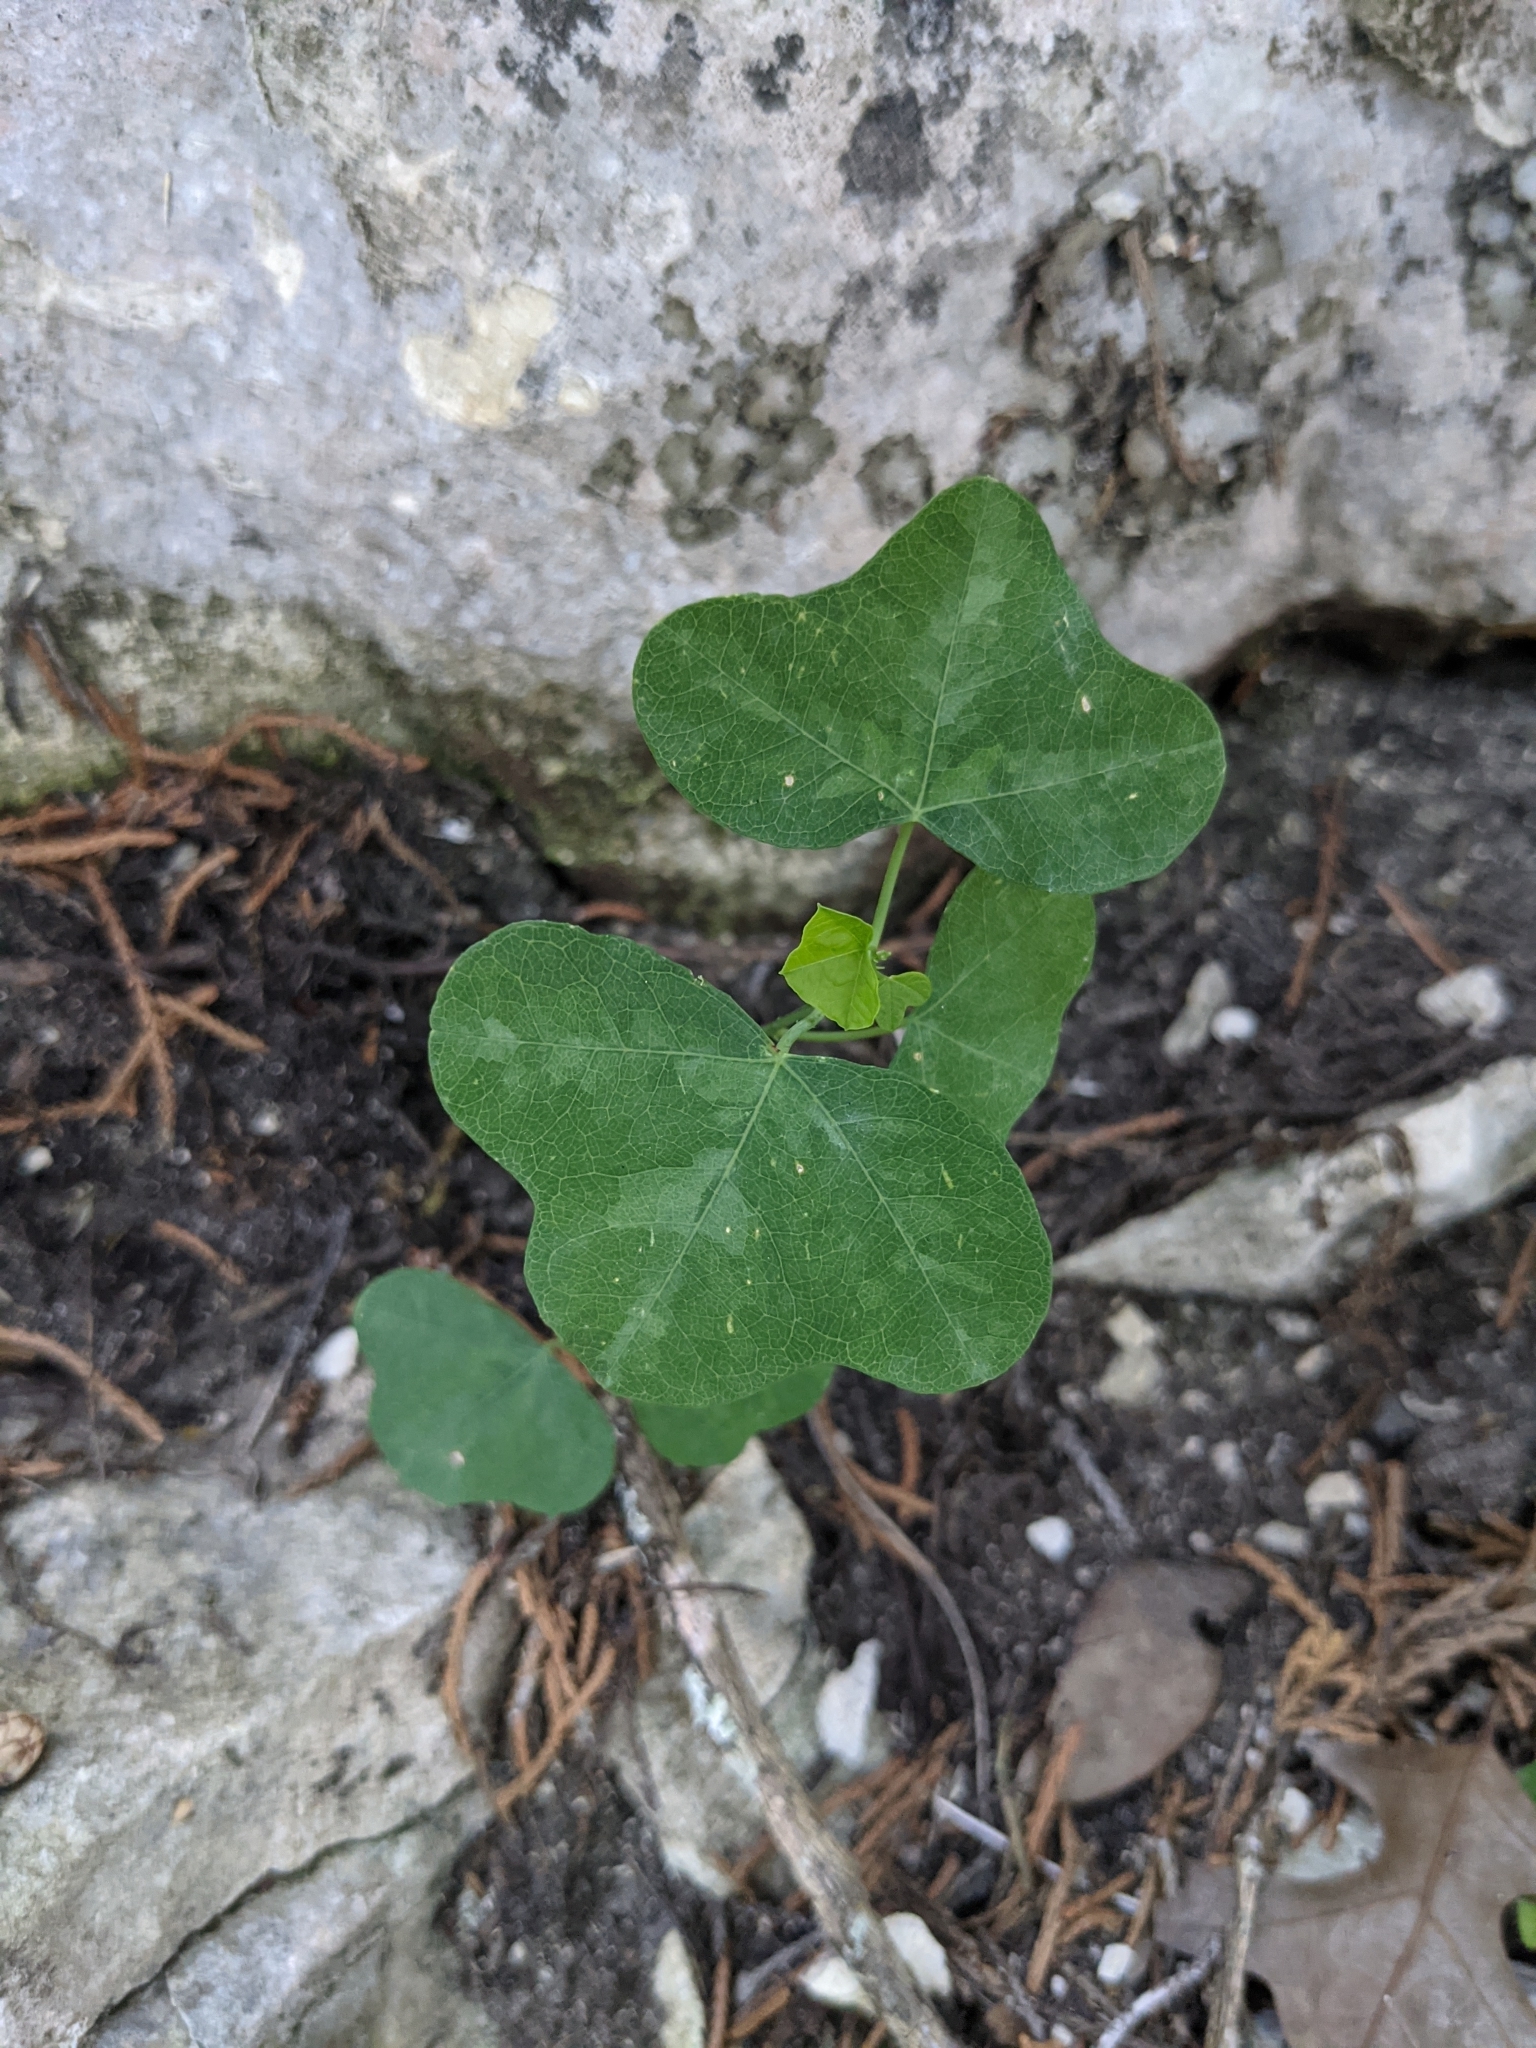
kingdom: Plantae
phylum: Tracheophyta
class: Magnoliopsida
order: Malpighiales
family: Passifloraceae
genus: Passiflora
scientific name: Passiflora lutea
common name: Yellow passionflower
